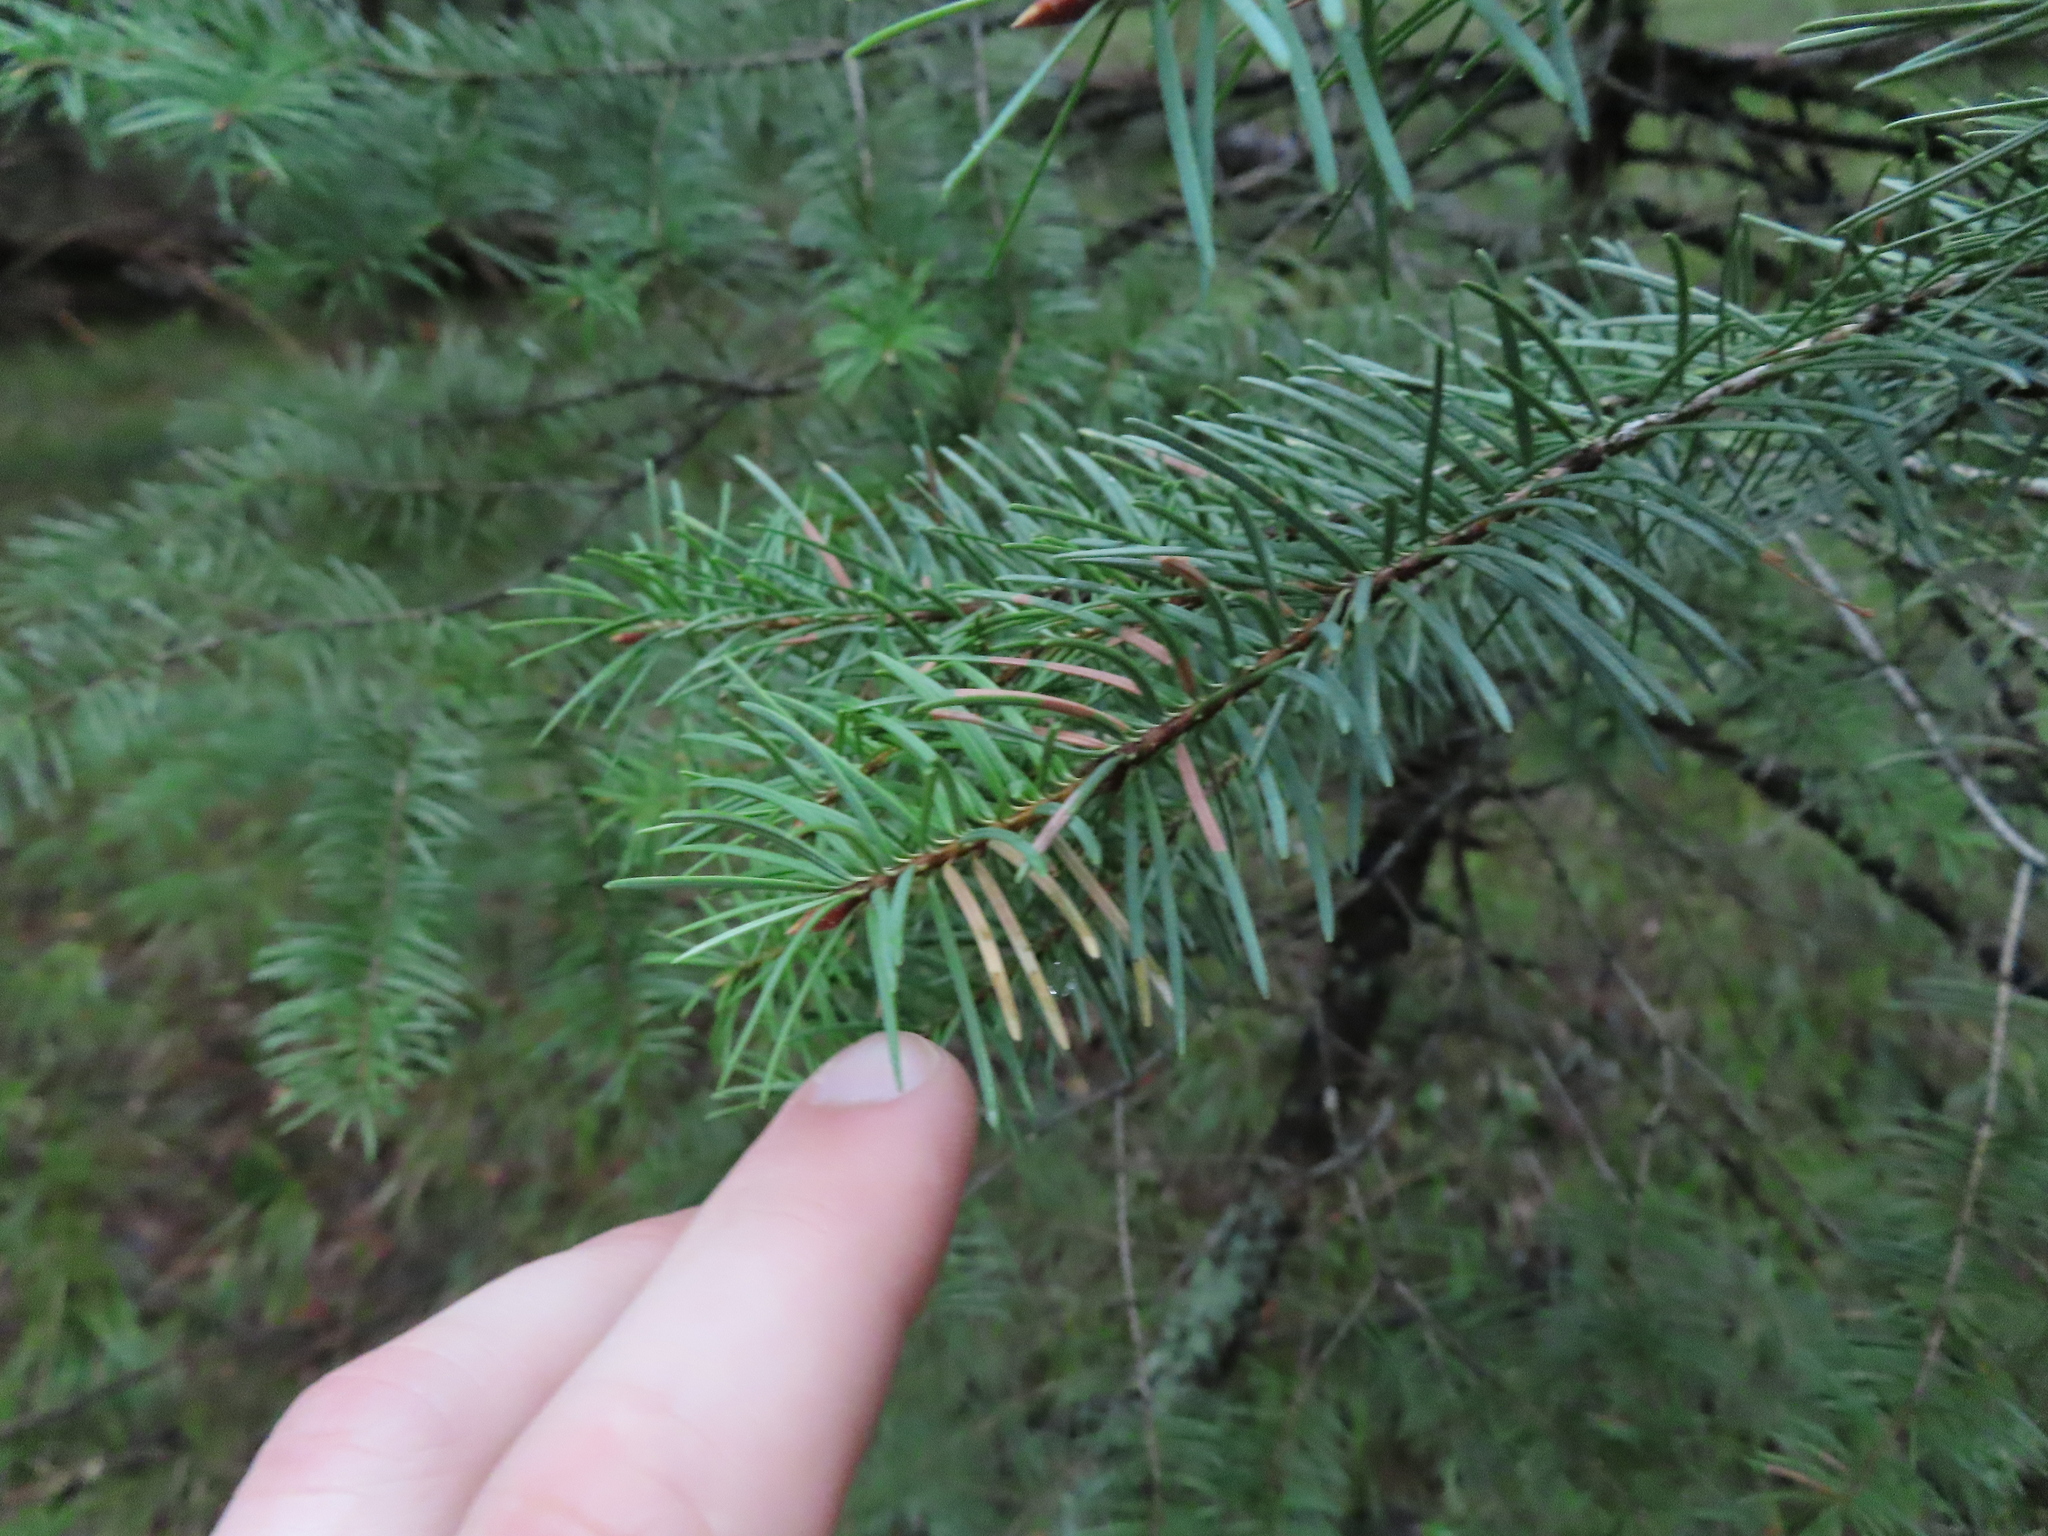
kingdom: Plantae
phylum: Tracheophyta
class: Pinopsida
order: Pinales
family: Pinaceae
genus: Pseudotsuga
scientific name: Pseudotsuga menziesii
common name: Douglas fir
